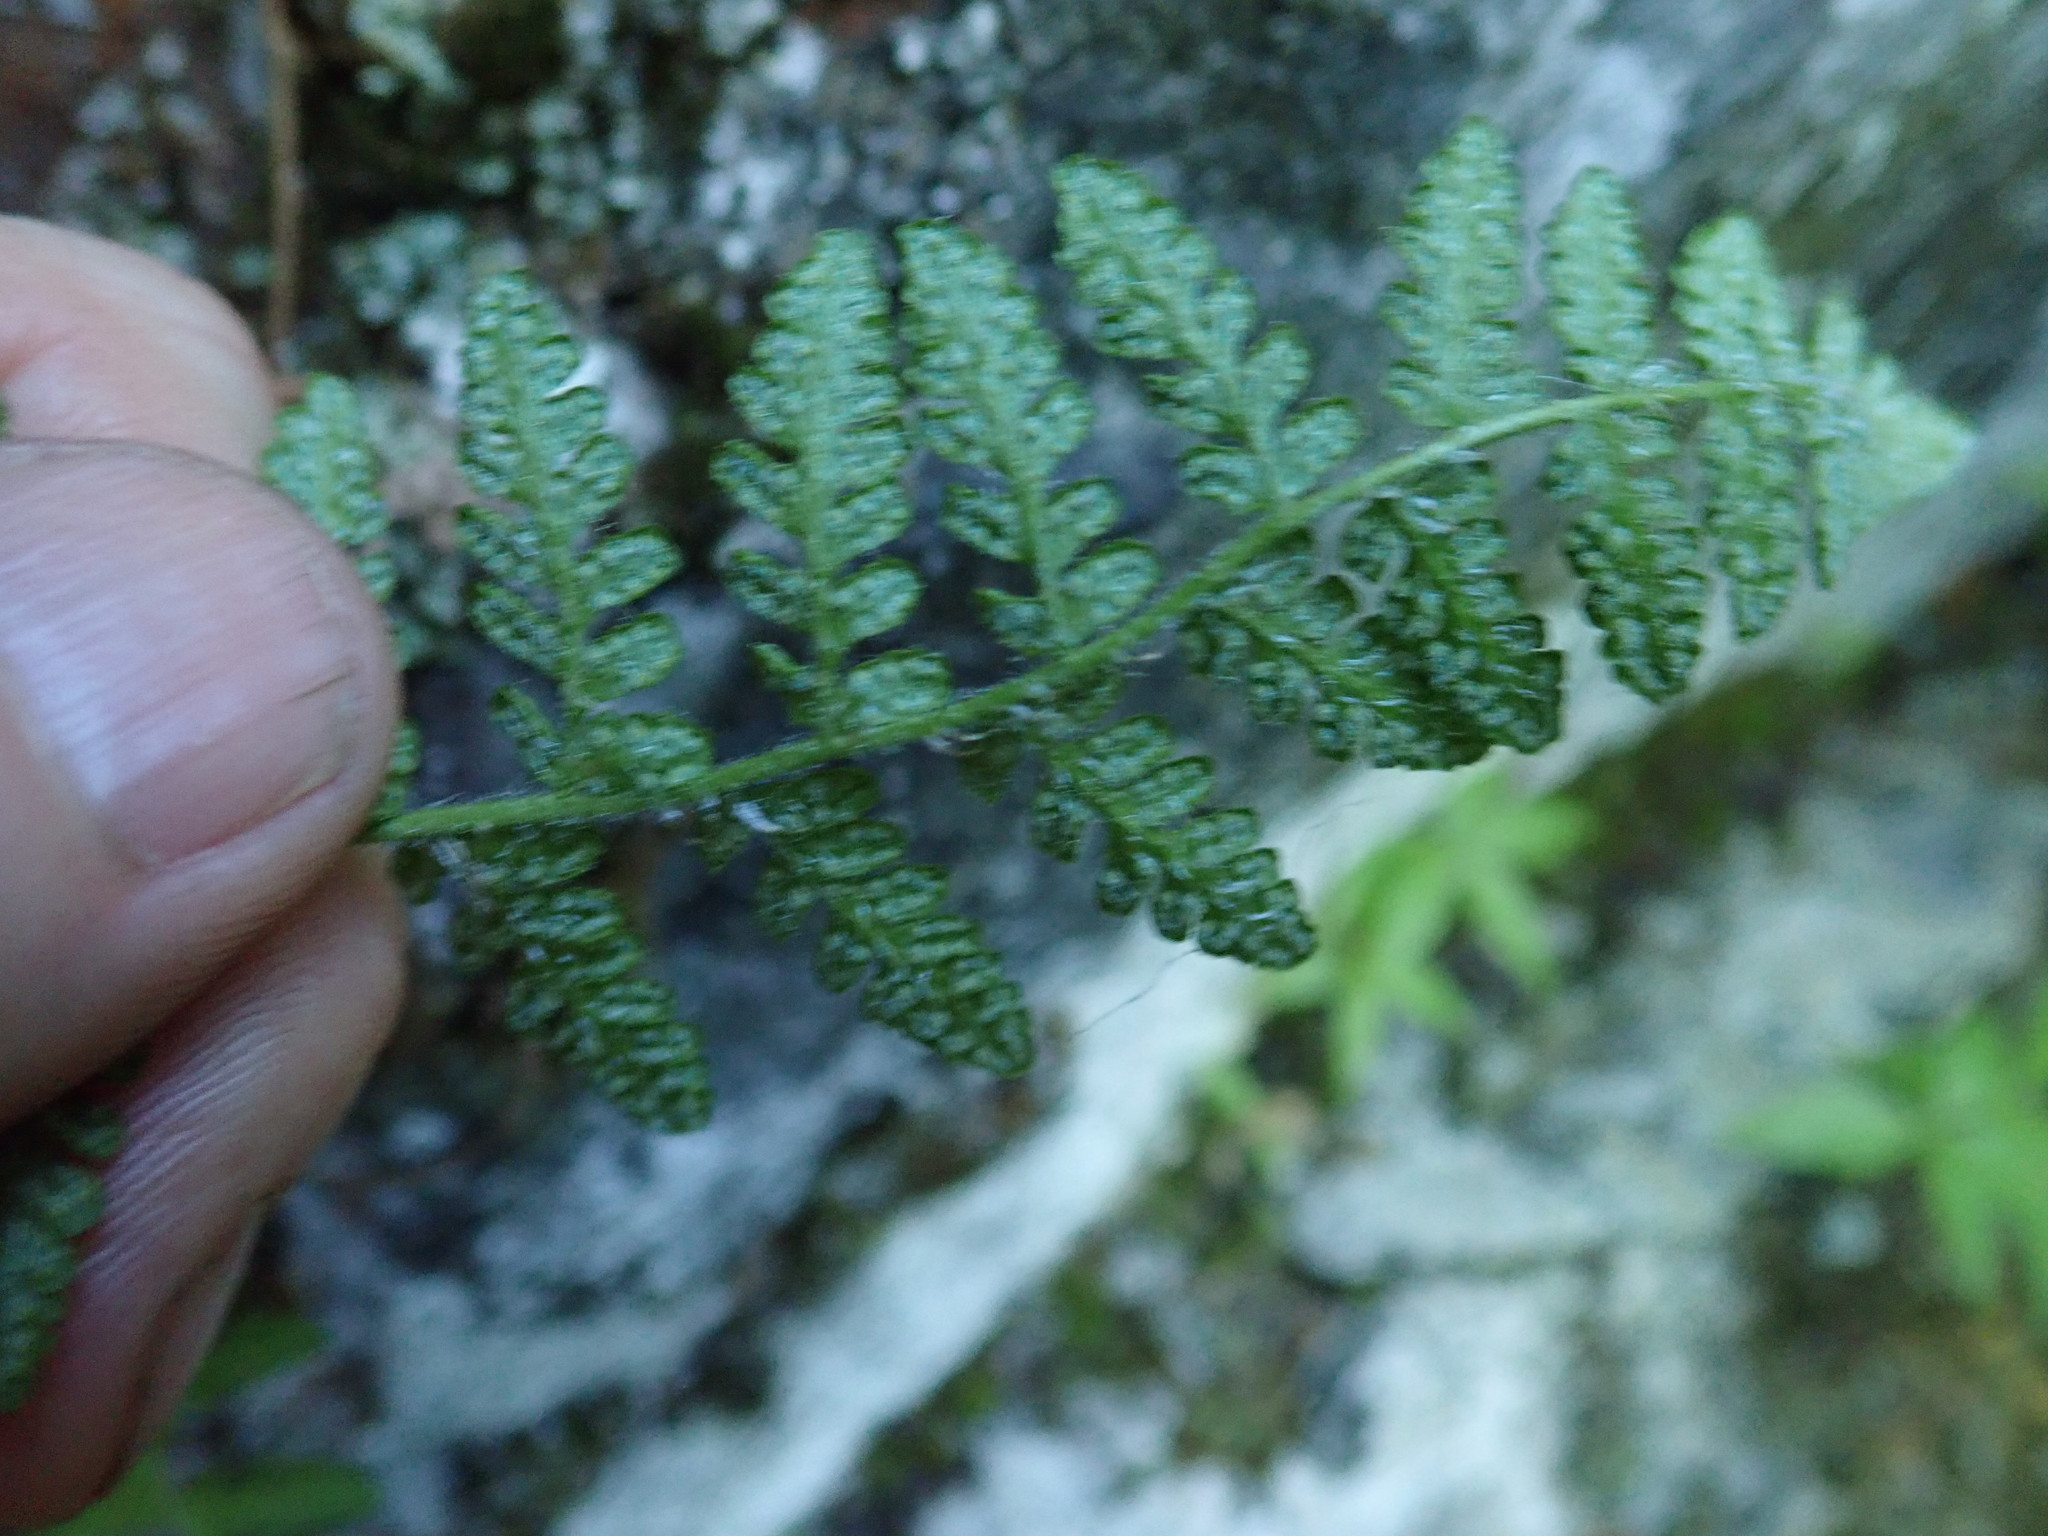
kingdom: Plantae
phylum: Tracheophyta
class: Polypodiopsida
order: Polypodiales
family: Cystopteridaceae
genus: Cystopteris
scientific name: Cystopteris fragilis
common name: Brittle bladder fern
